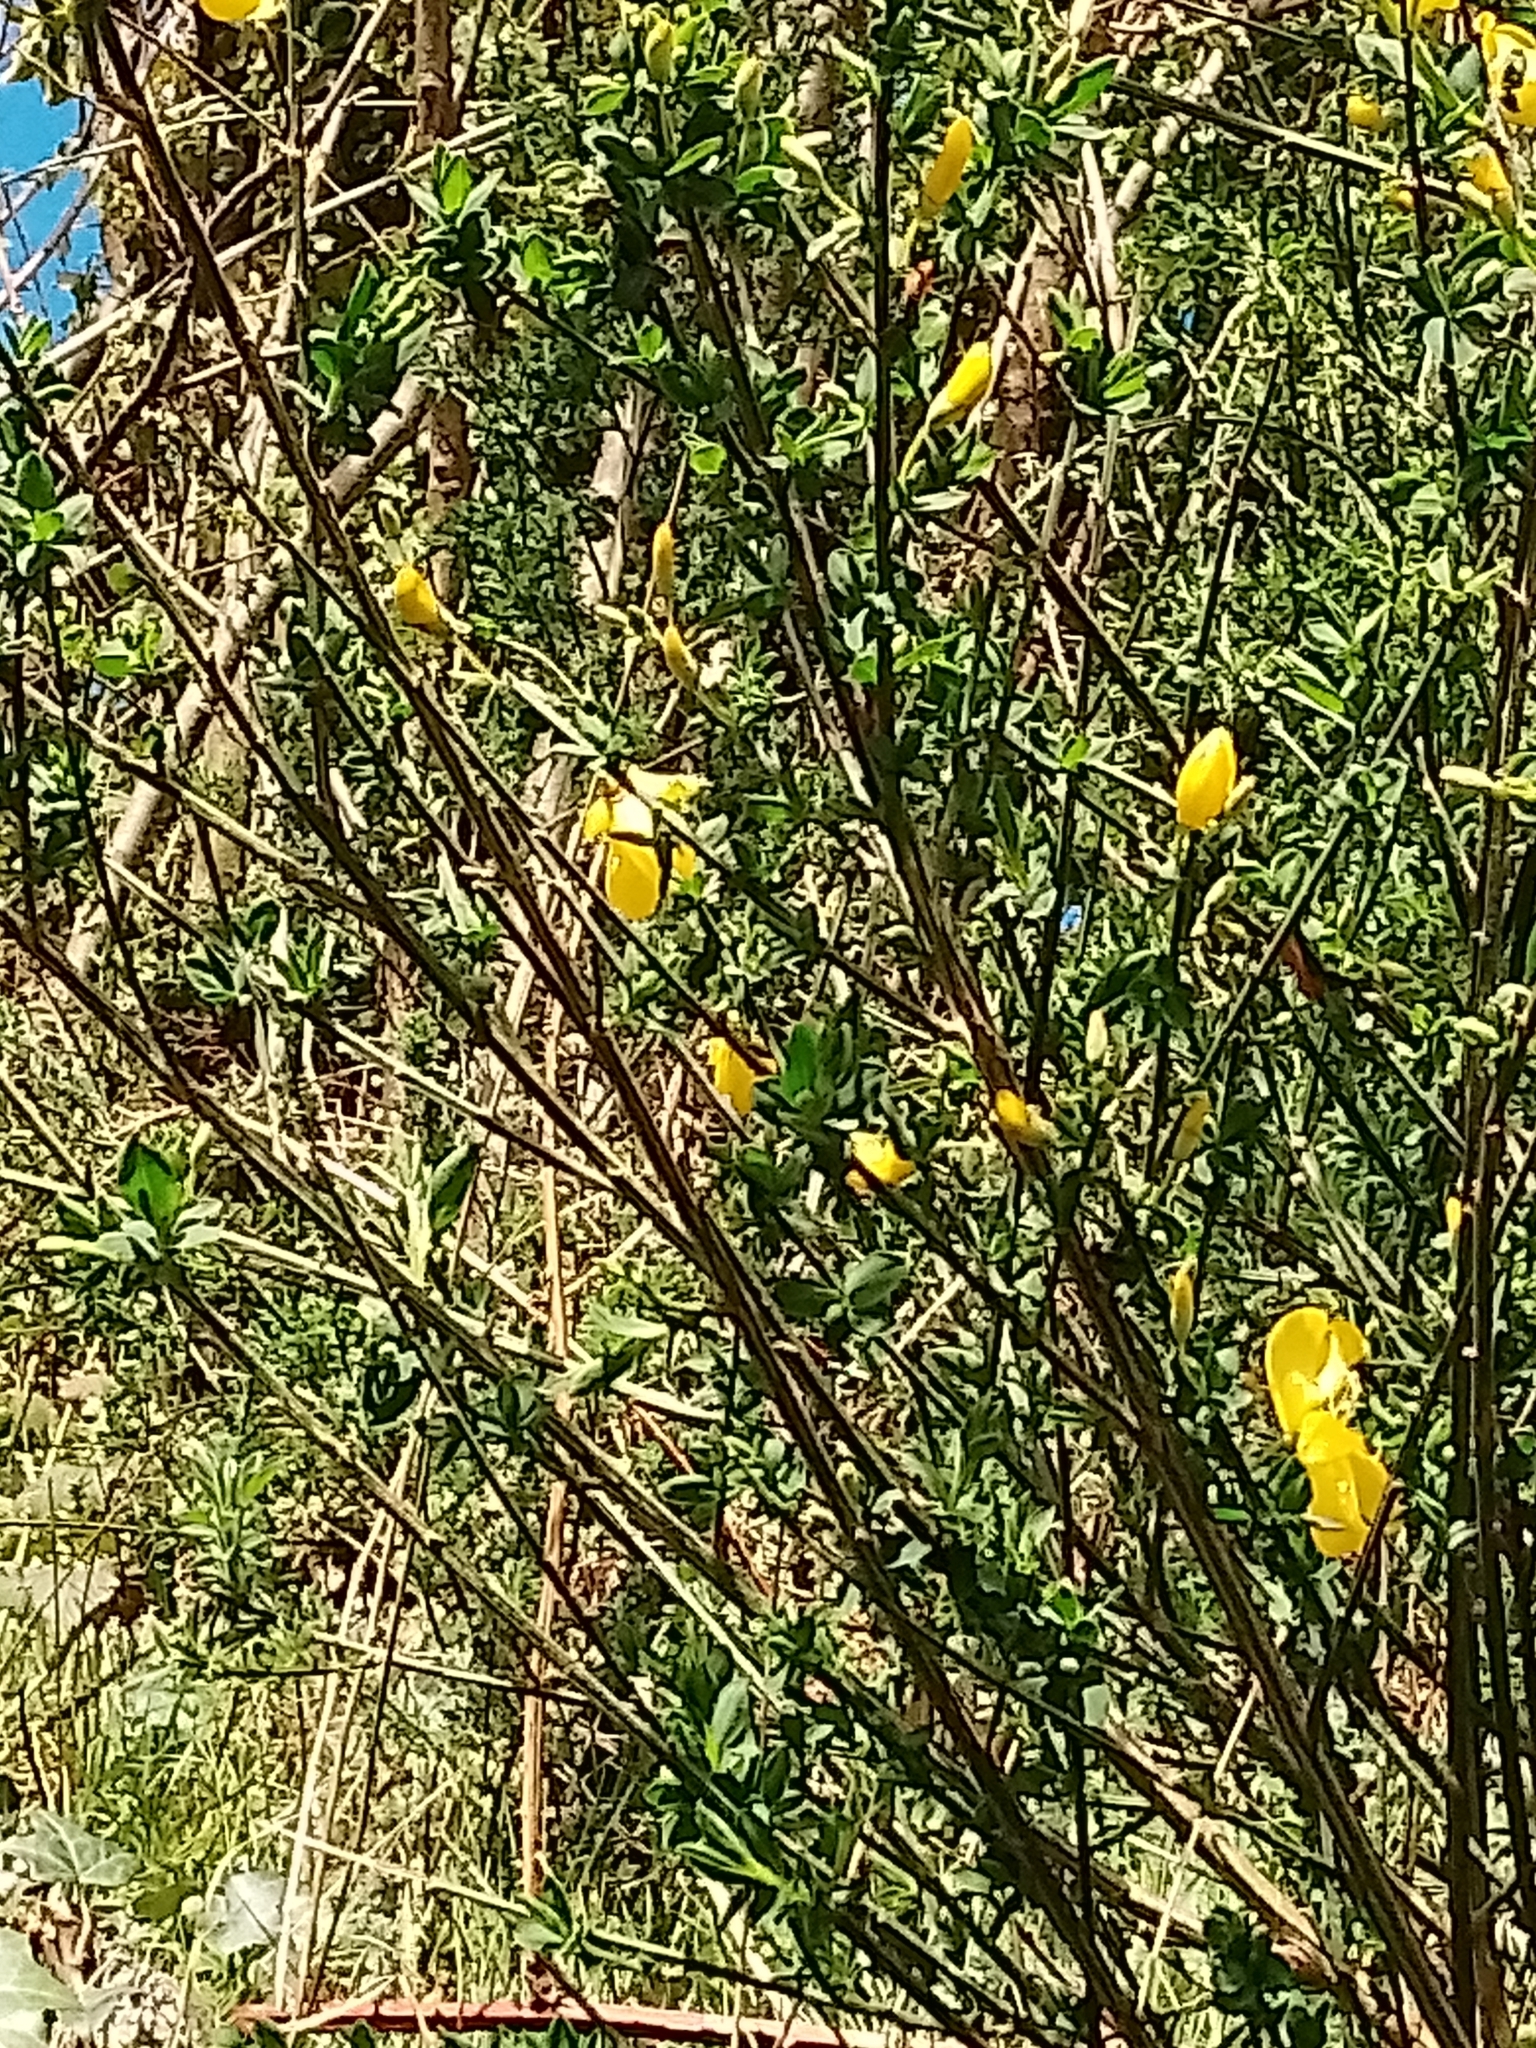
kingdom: Plantae
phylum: Tracheophyta
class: Magnoliopsida
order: Fabales
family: Fabaceae
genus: Cytisus
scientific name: Cytisus scoparius
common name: Scotch broom
